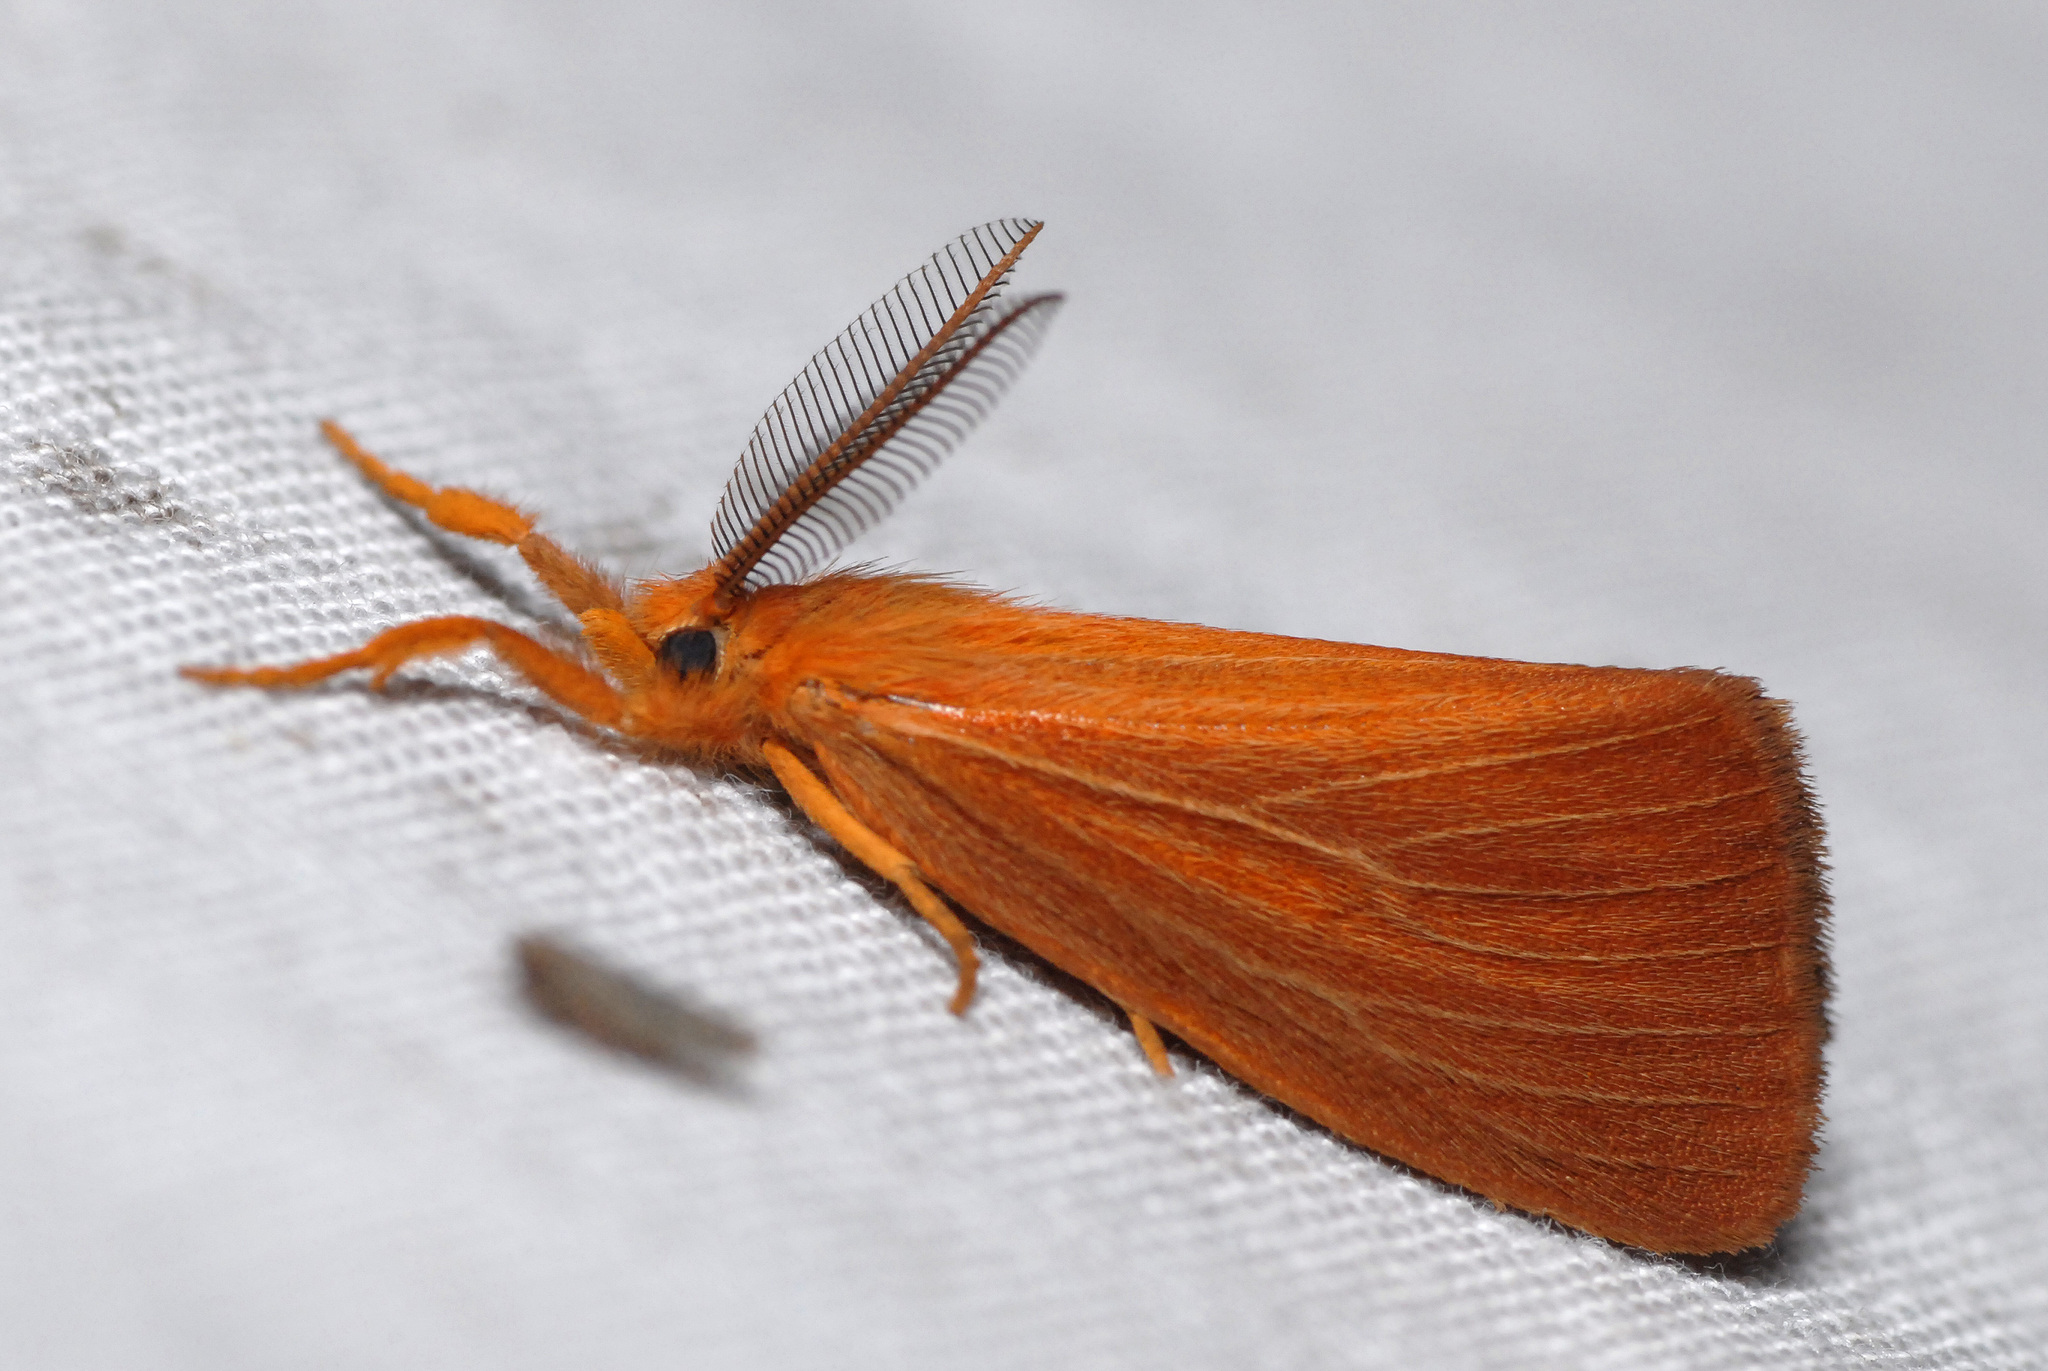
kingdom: Animalia
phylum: Arthropoda
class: Insecta
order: Lepidoptera
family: Erebidae
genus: Pantana
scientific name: Pantana
